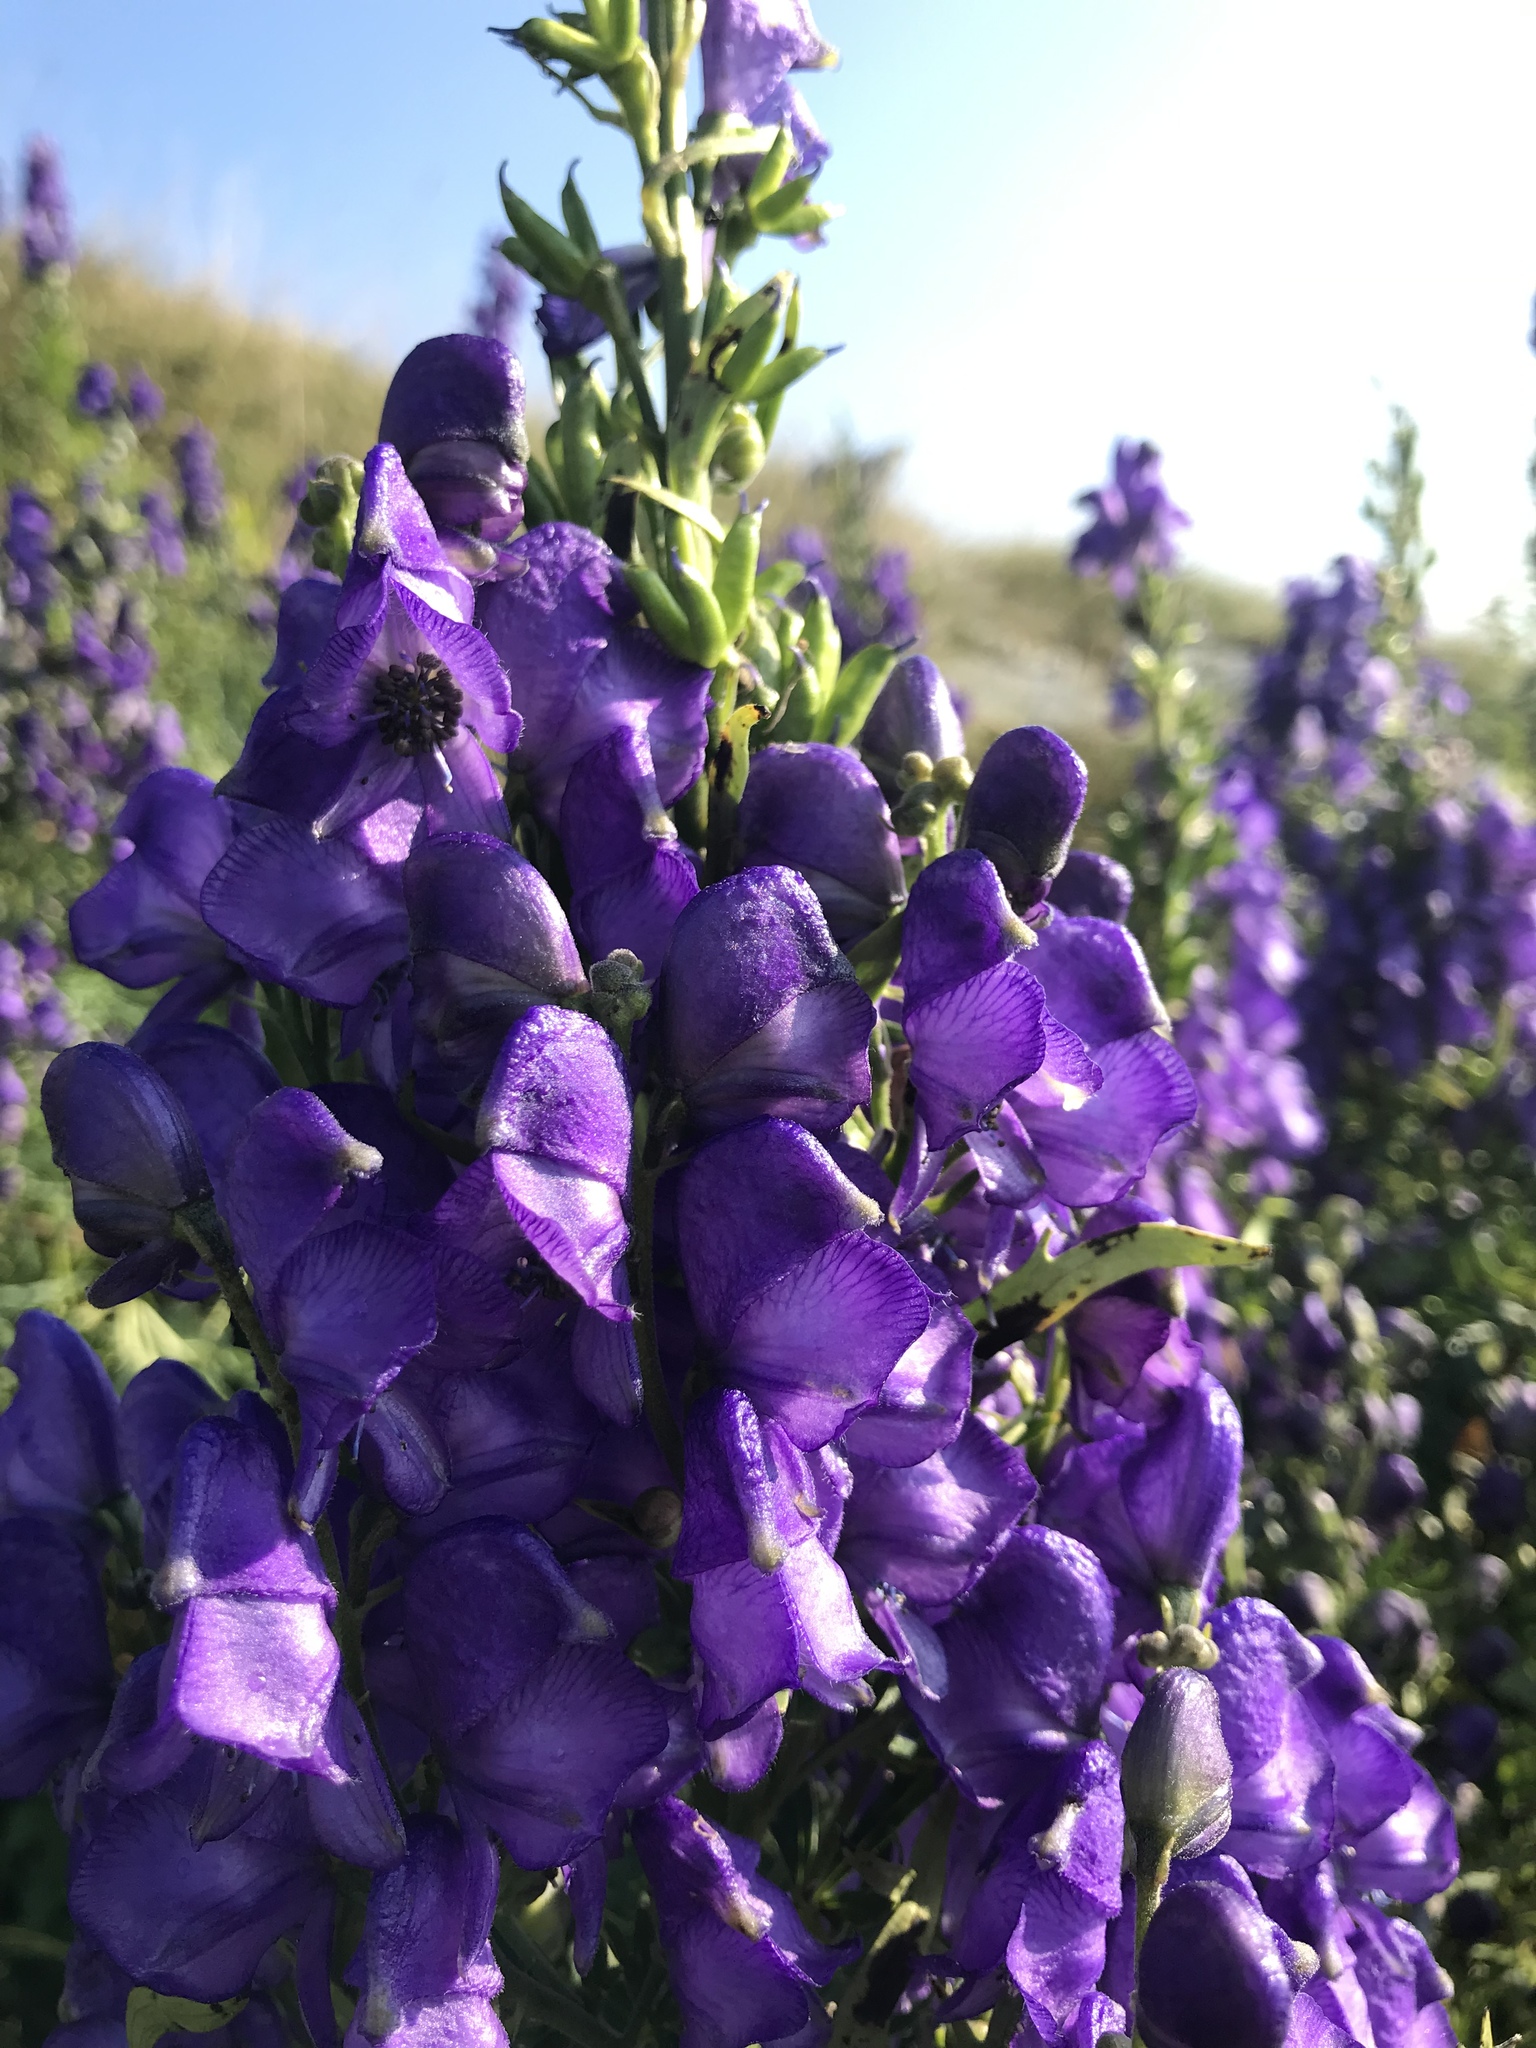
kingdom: Plantae
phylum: Tracheophyta
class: Magnoliopsida
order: Ranunculales
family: Ranunculaceae
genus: Aconitum
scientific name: Aconitum napellus
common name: Garden monkshood
